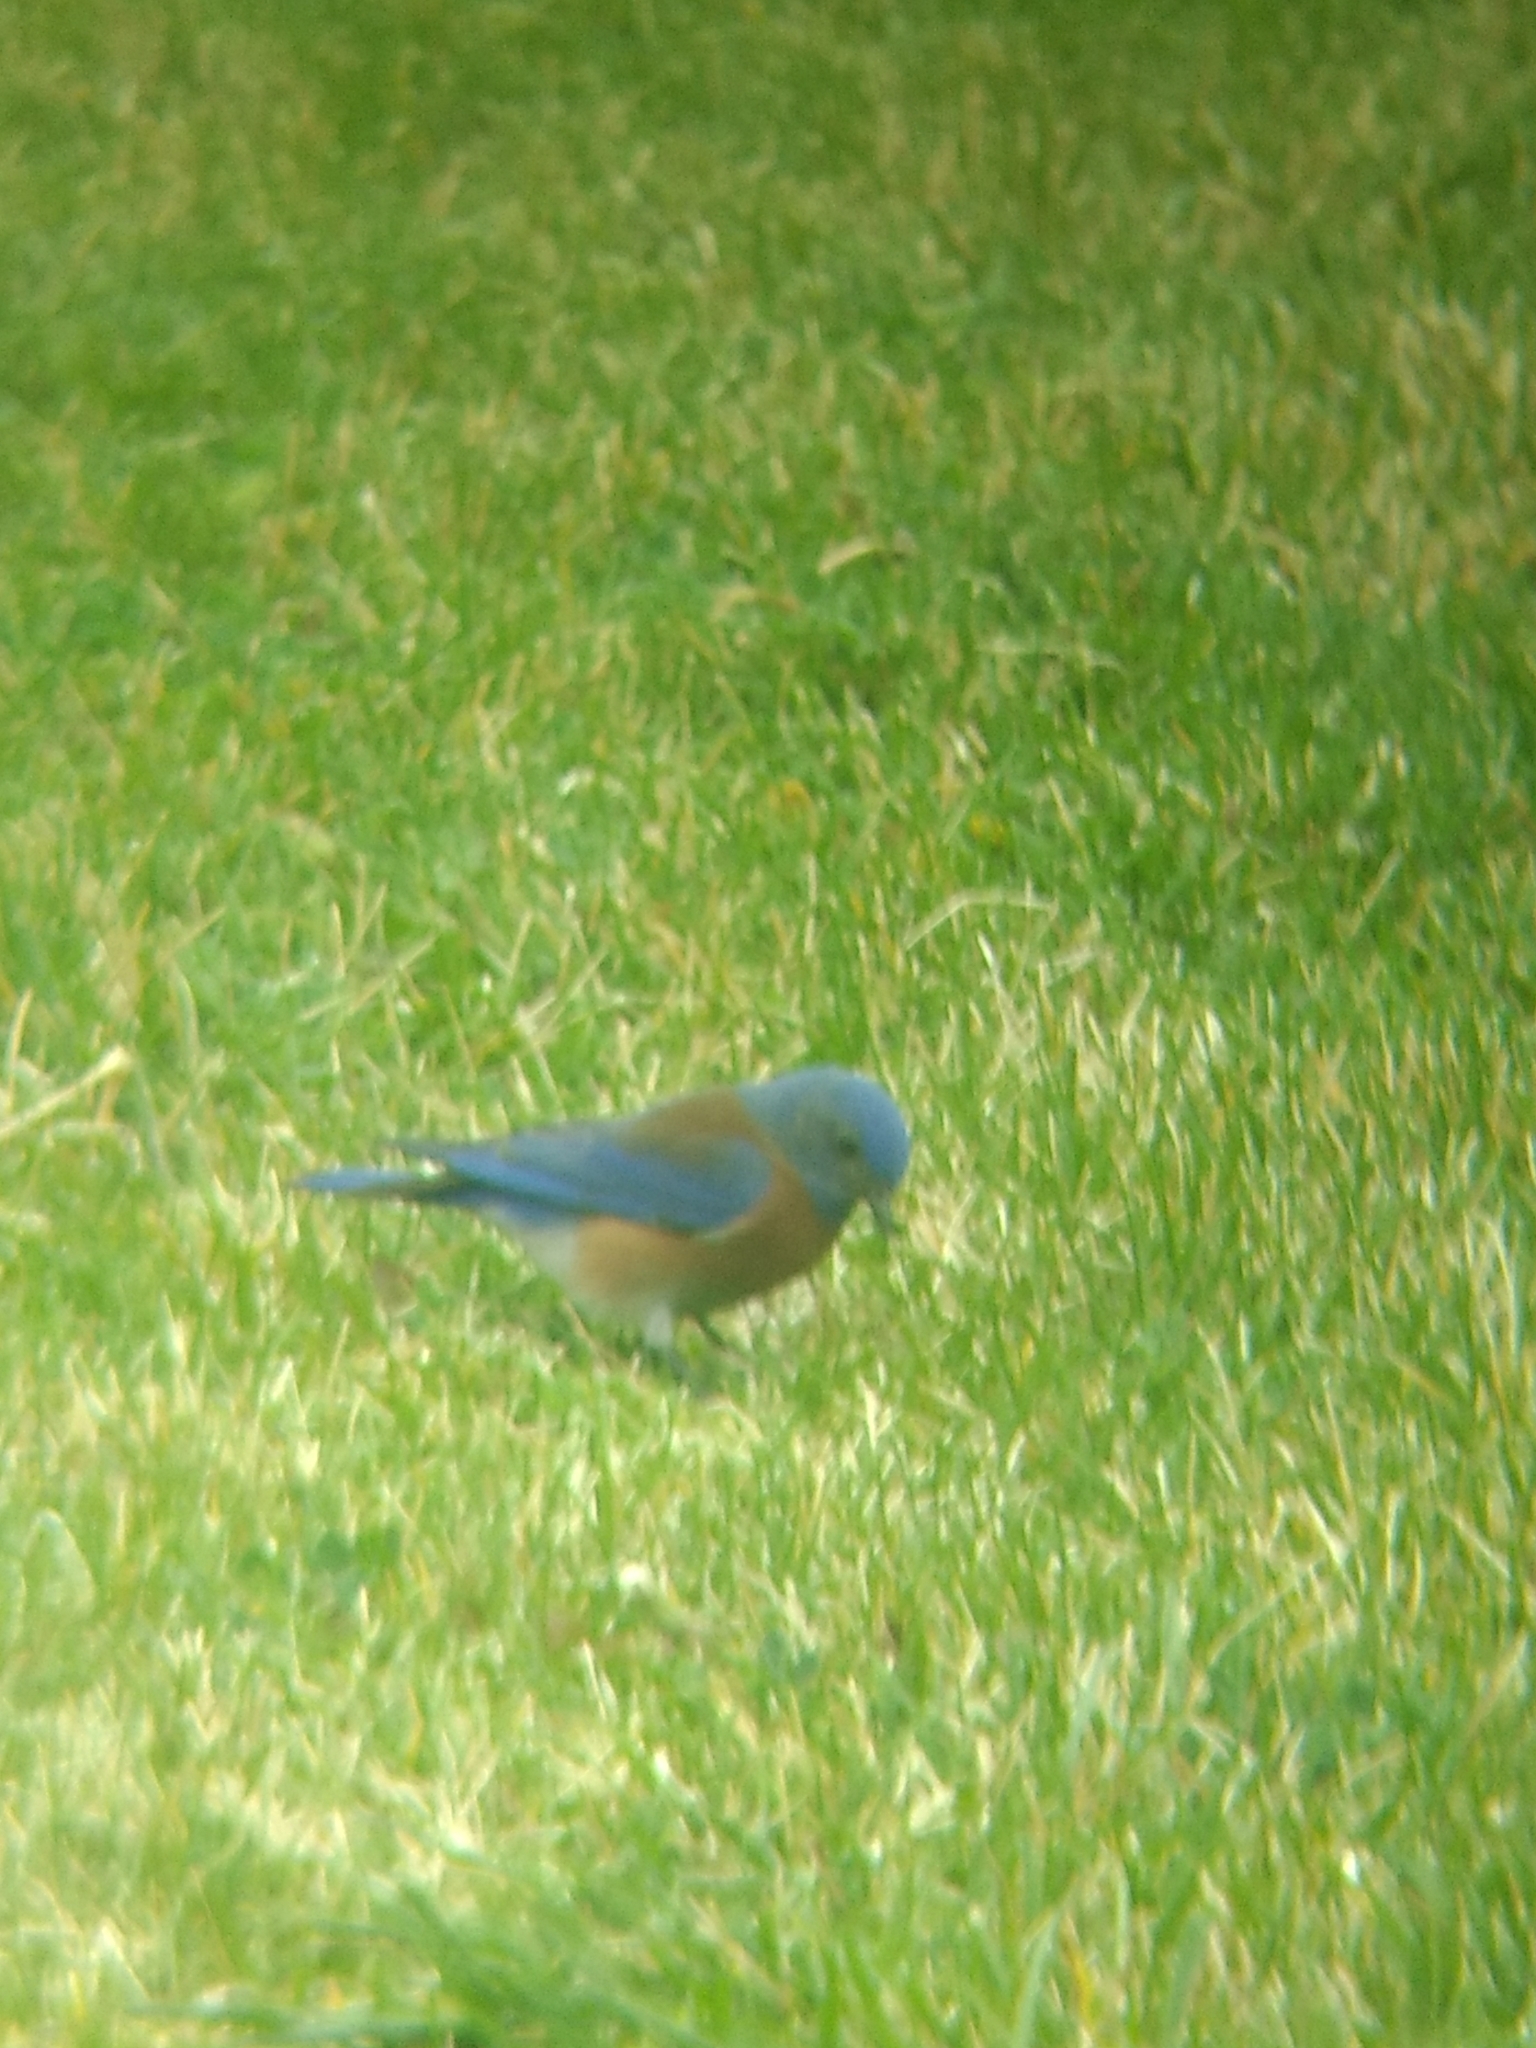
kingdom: Animalia
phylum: Chordata
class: Aves
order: Passeriformes
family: Turdidae
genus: Sialia
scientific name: Sialia mexicana
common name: Western bluebird
